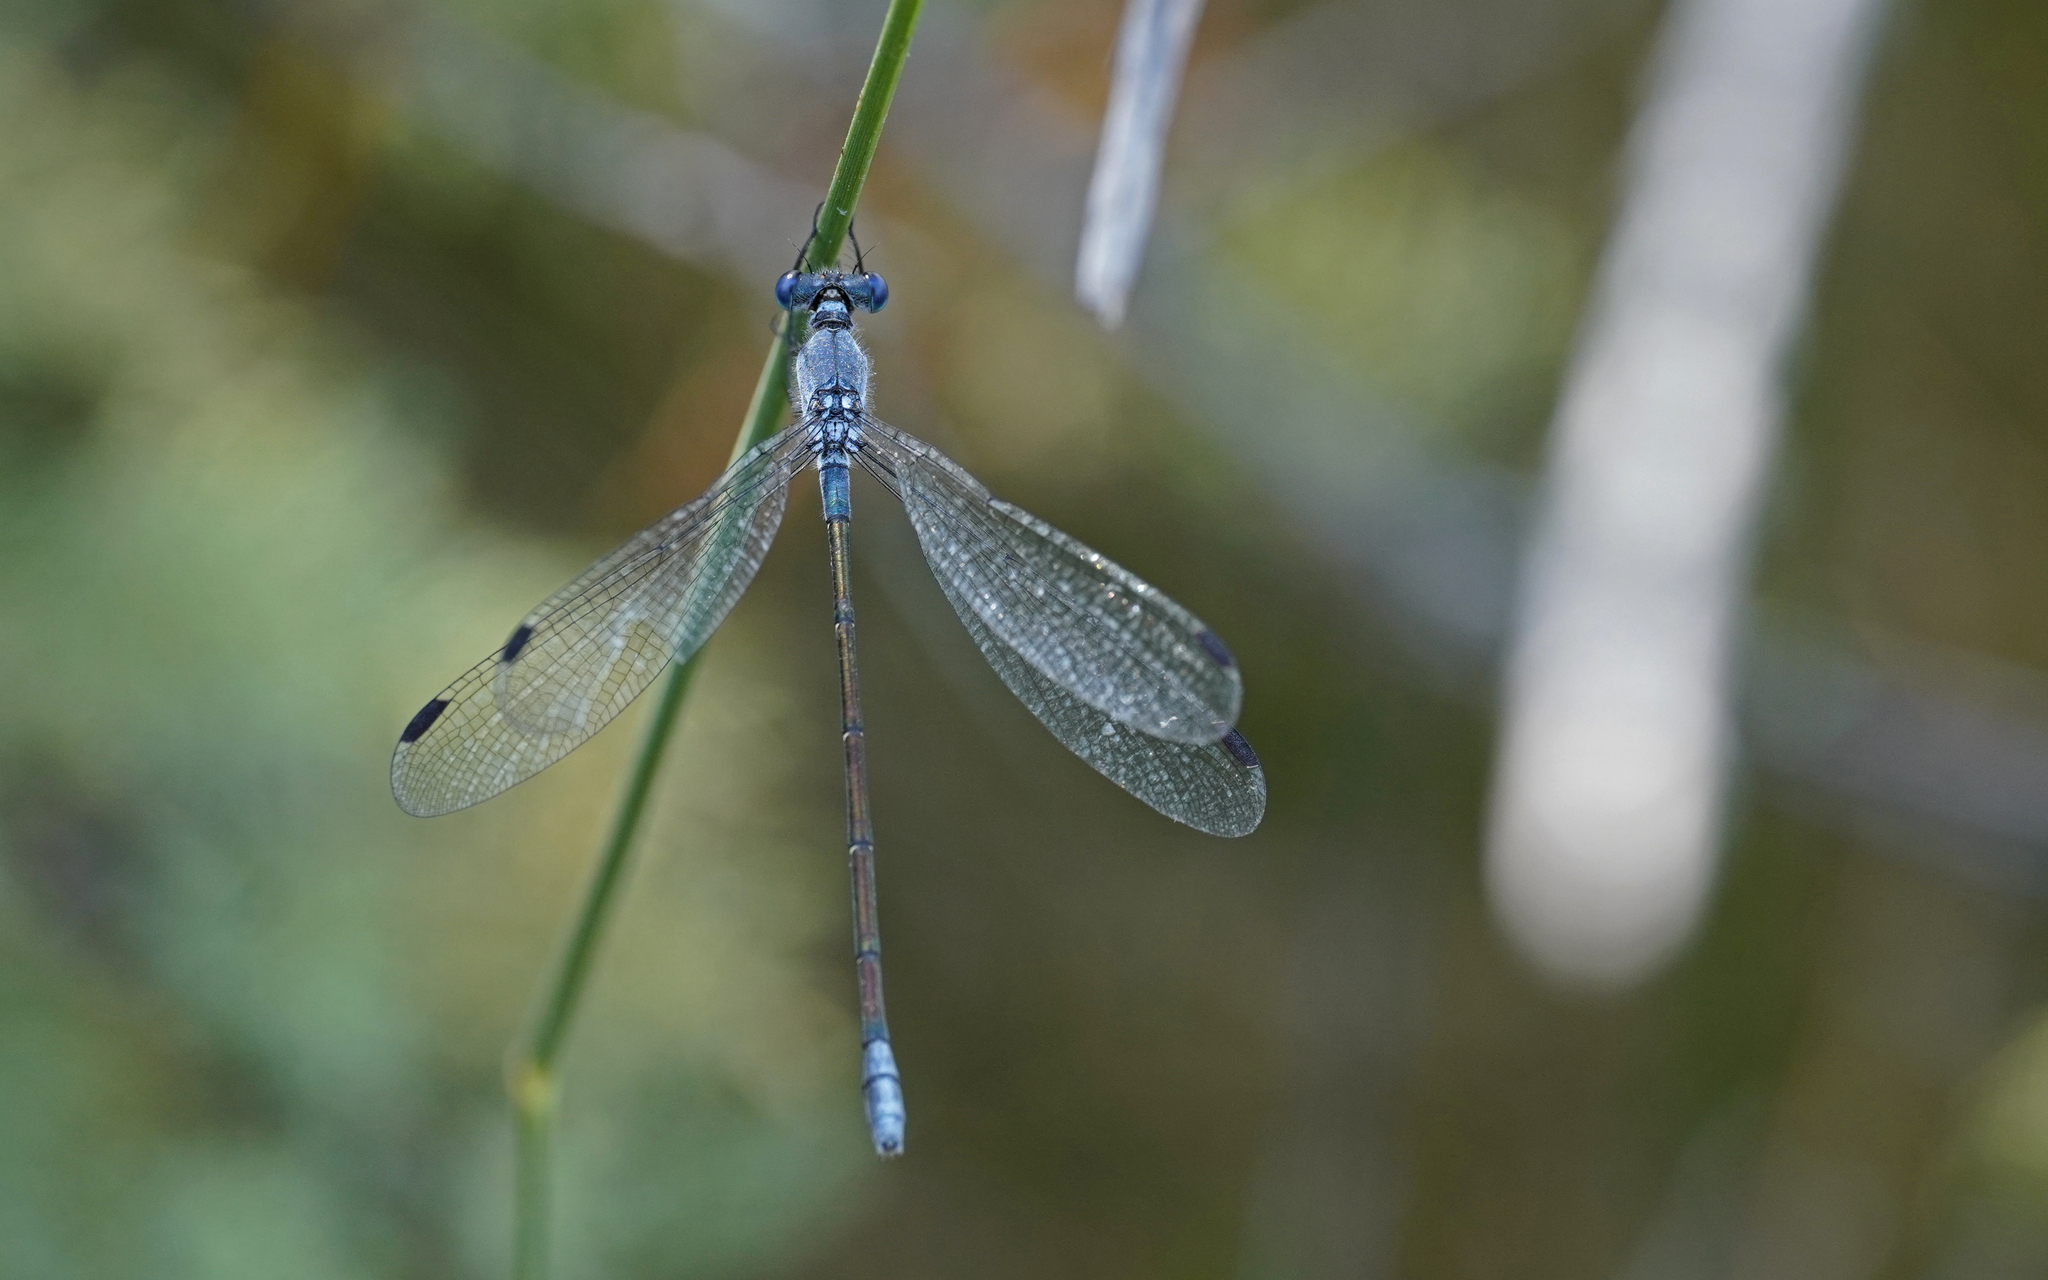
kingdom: Animalia
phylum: Arthropoda
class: Insecta
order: Odonata
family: Lestidae
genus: Lestes
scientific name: Lestes macrostigma
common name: Dark spreadwing
